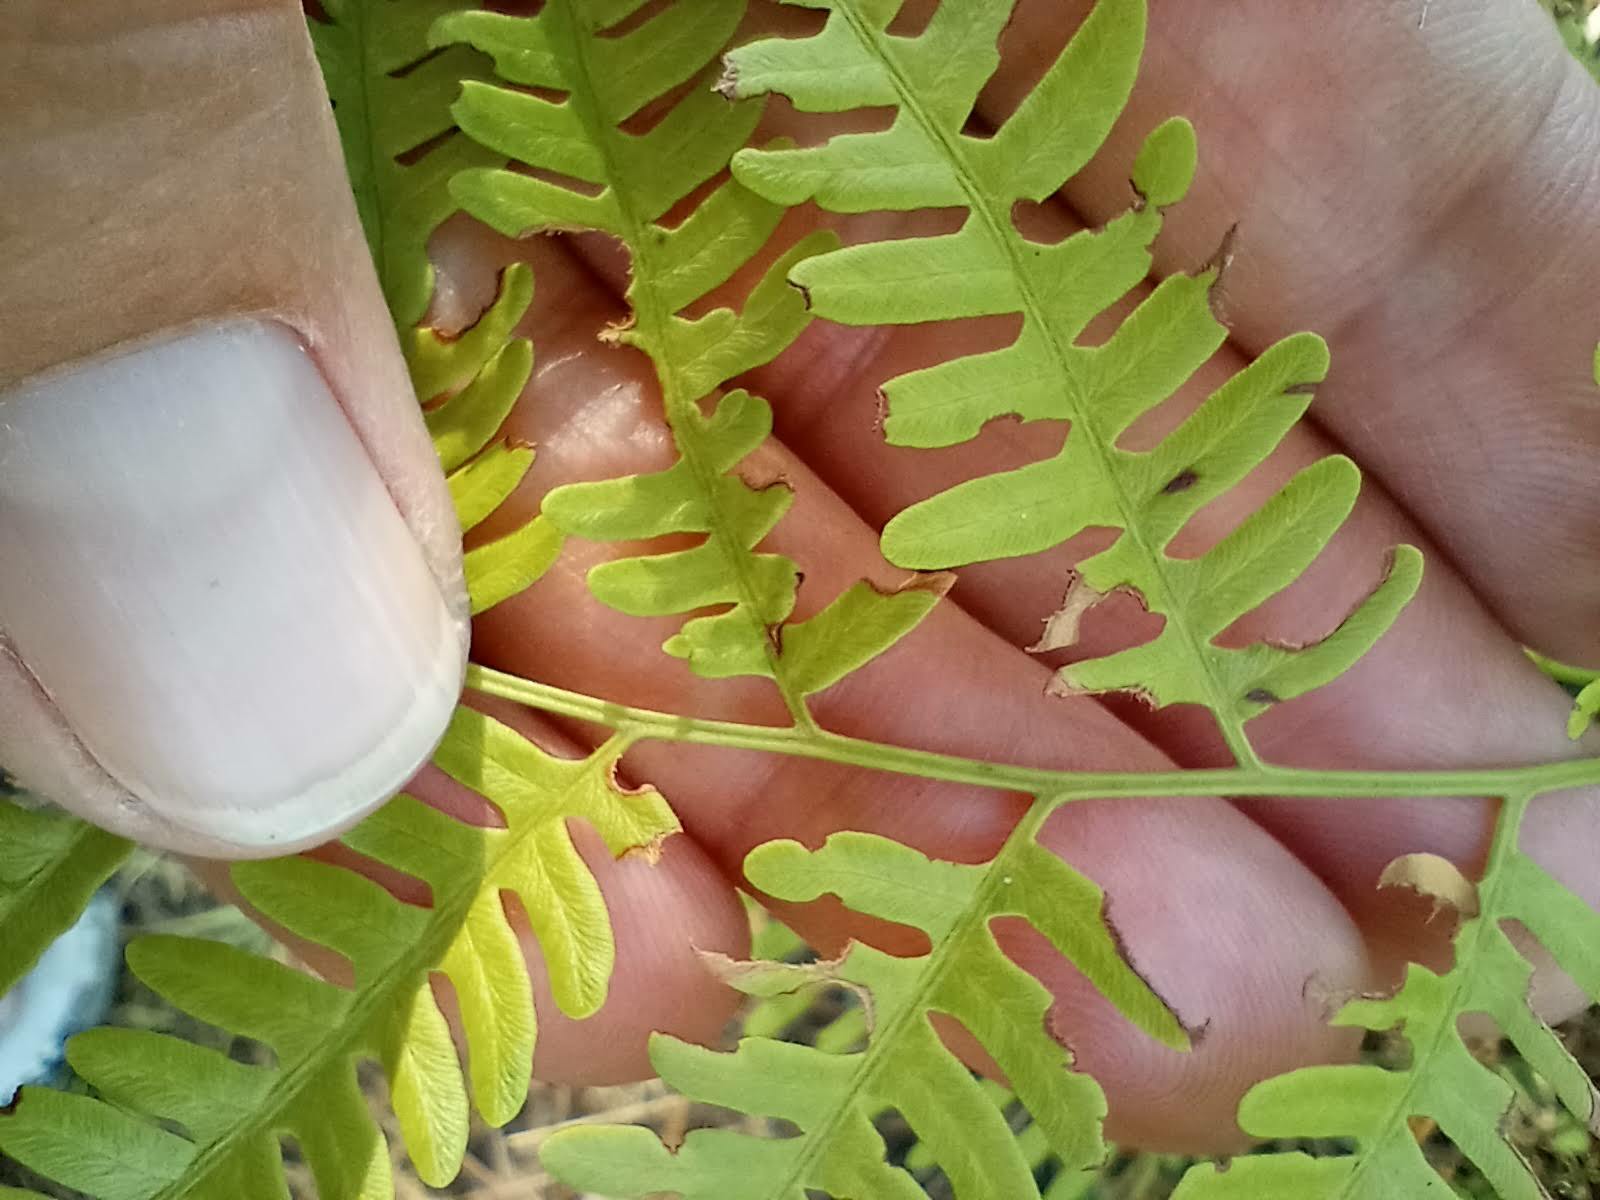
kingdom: Plantae
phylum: Tracheophyta
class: Polypodiopsida
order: Polypodiales
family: Dennstaedtiaceae
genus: Pteridium
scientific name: Pteridium
